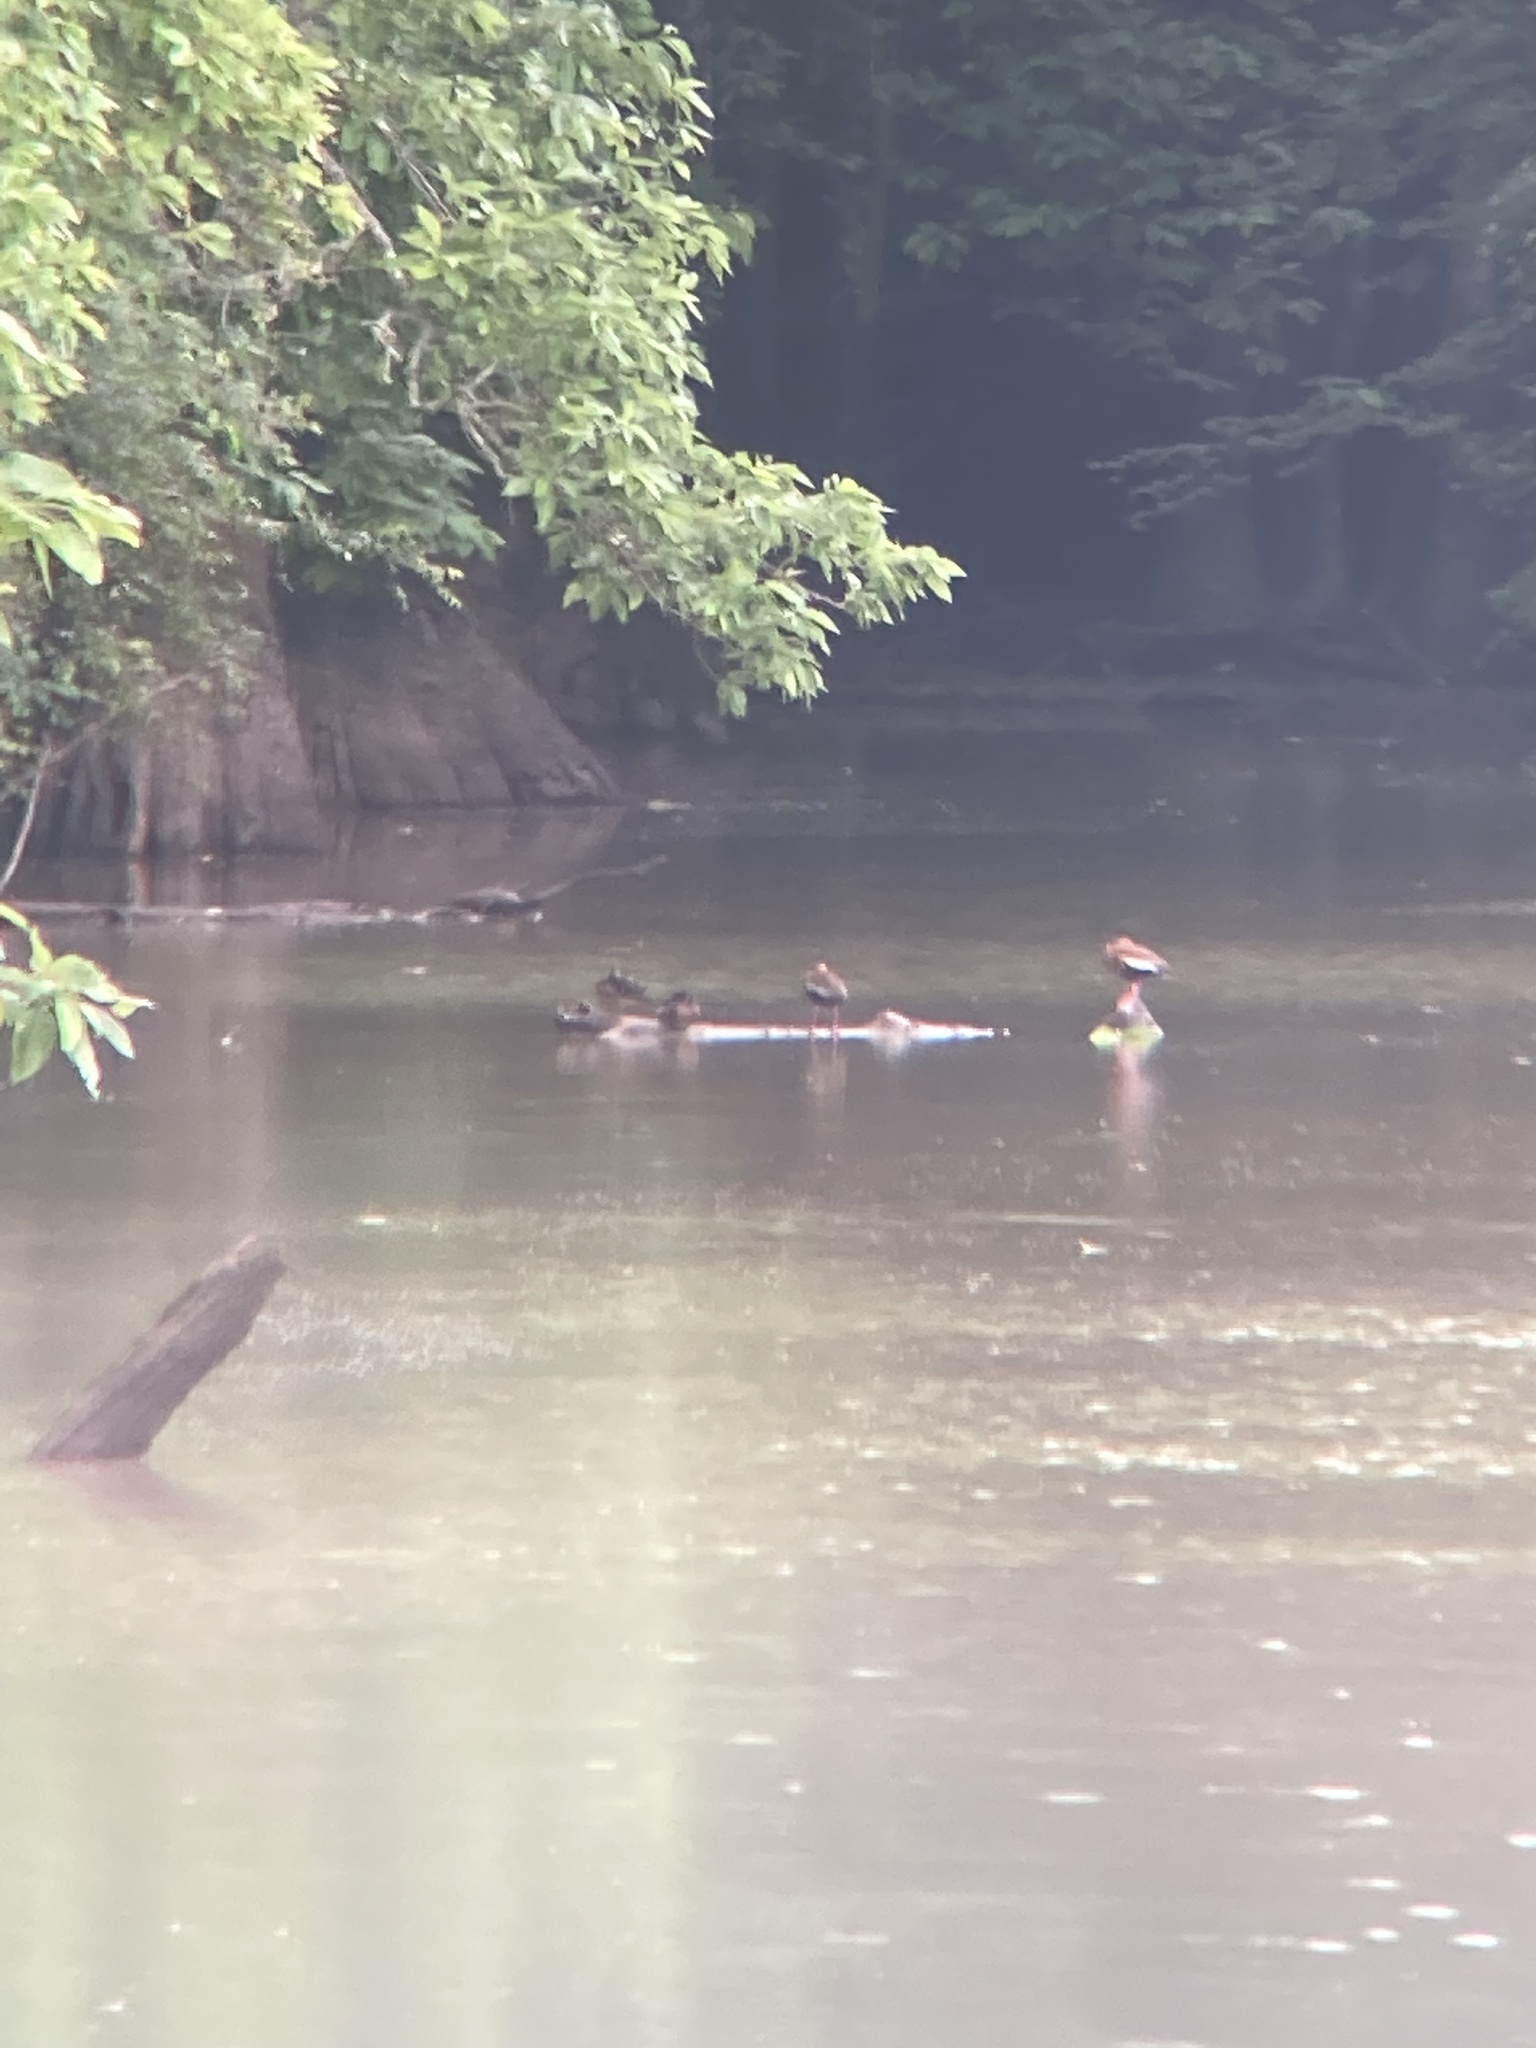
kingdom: Animalia
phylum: Chordata
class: Aves
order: Anseriformes
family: Anatidae
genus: Dendrocygna
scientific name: Dendrocygna autumnalis
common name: Black-bellied whistling duck
